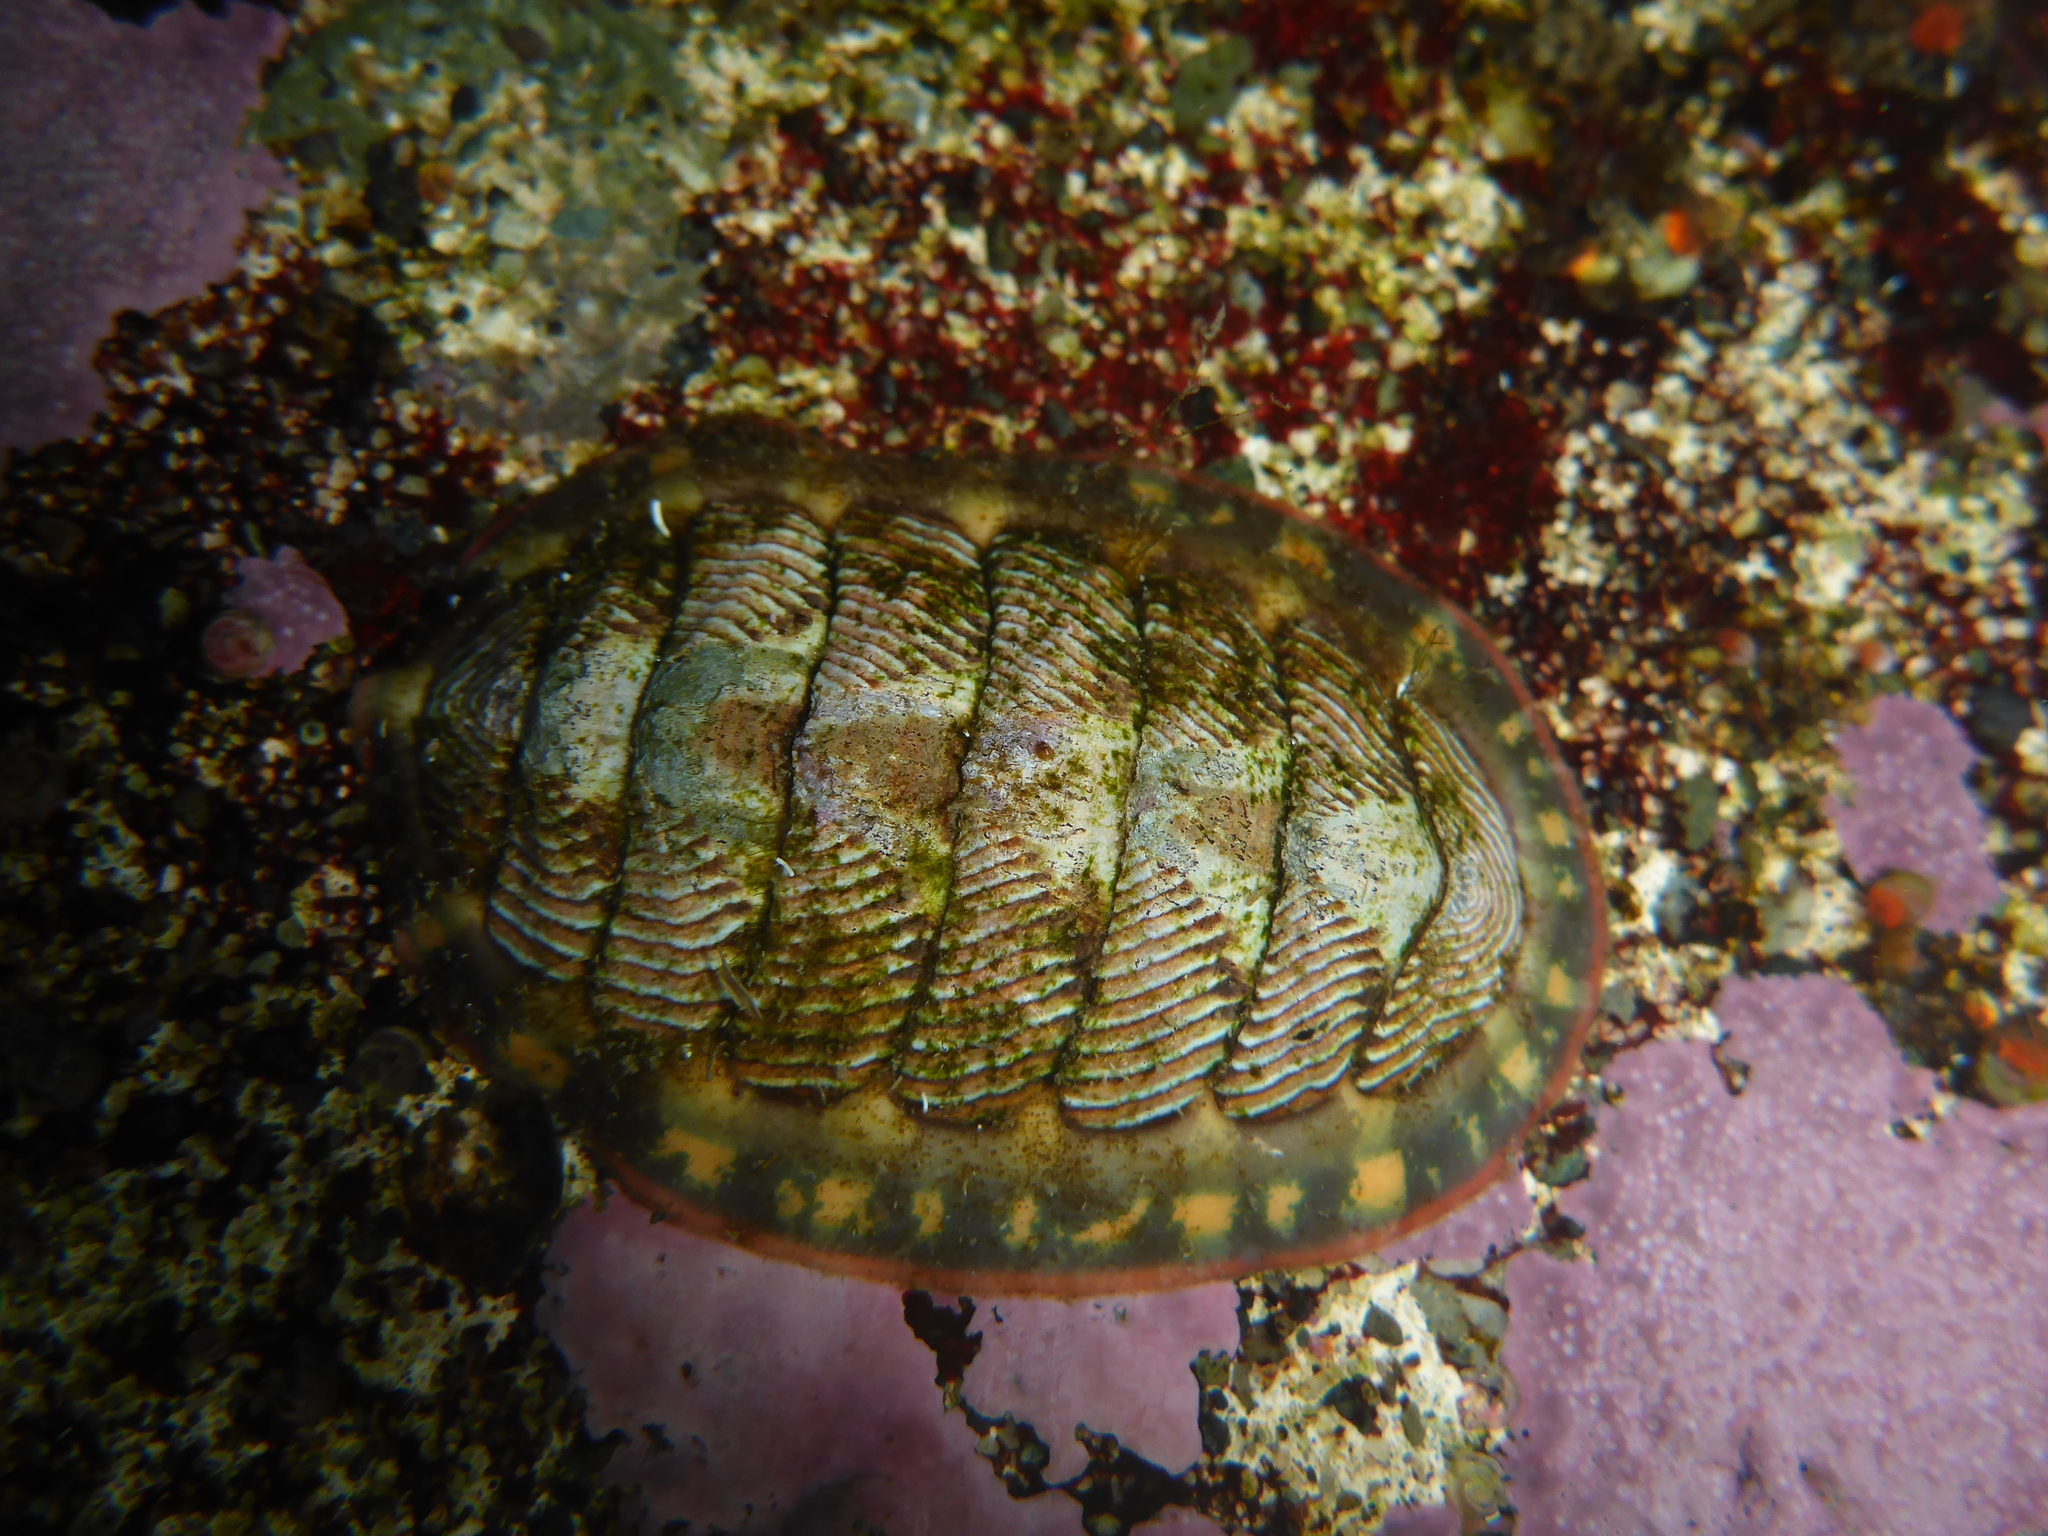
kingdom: Animalia
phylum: Mollusca
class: Polyplacophora
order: Chitonida
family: Tonicellidae
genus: Tonicella
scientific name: Tonicella lineata
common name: Lined chiton
